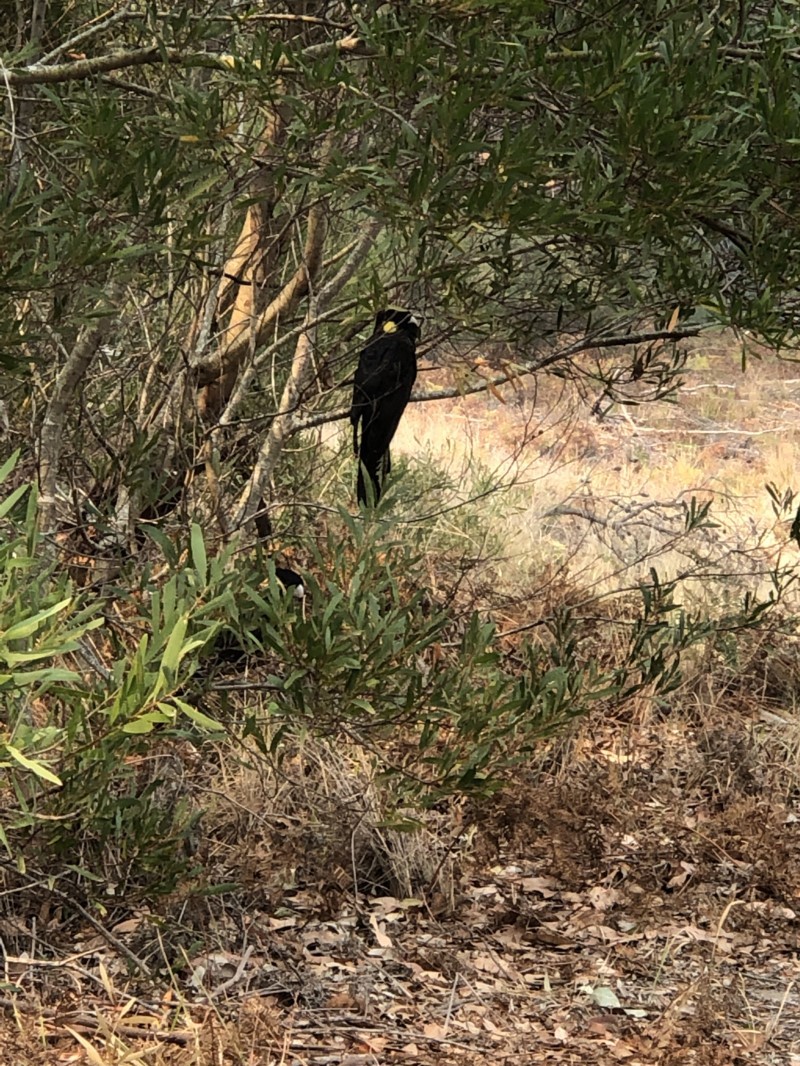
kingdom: Animalia
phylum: Chordata
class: Aves
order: Psittaciformes
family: Cacatuidae
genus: Zanda
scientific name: Zanda funerea
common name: Yellow-tailed black-cockatoo
